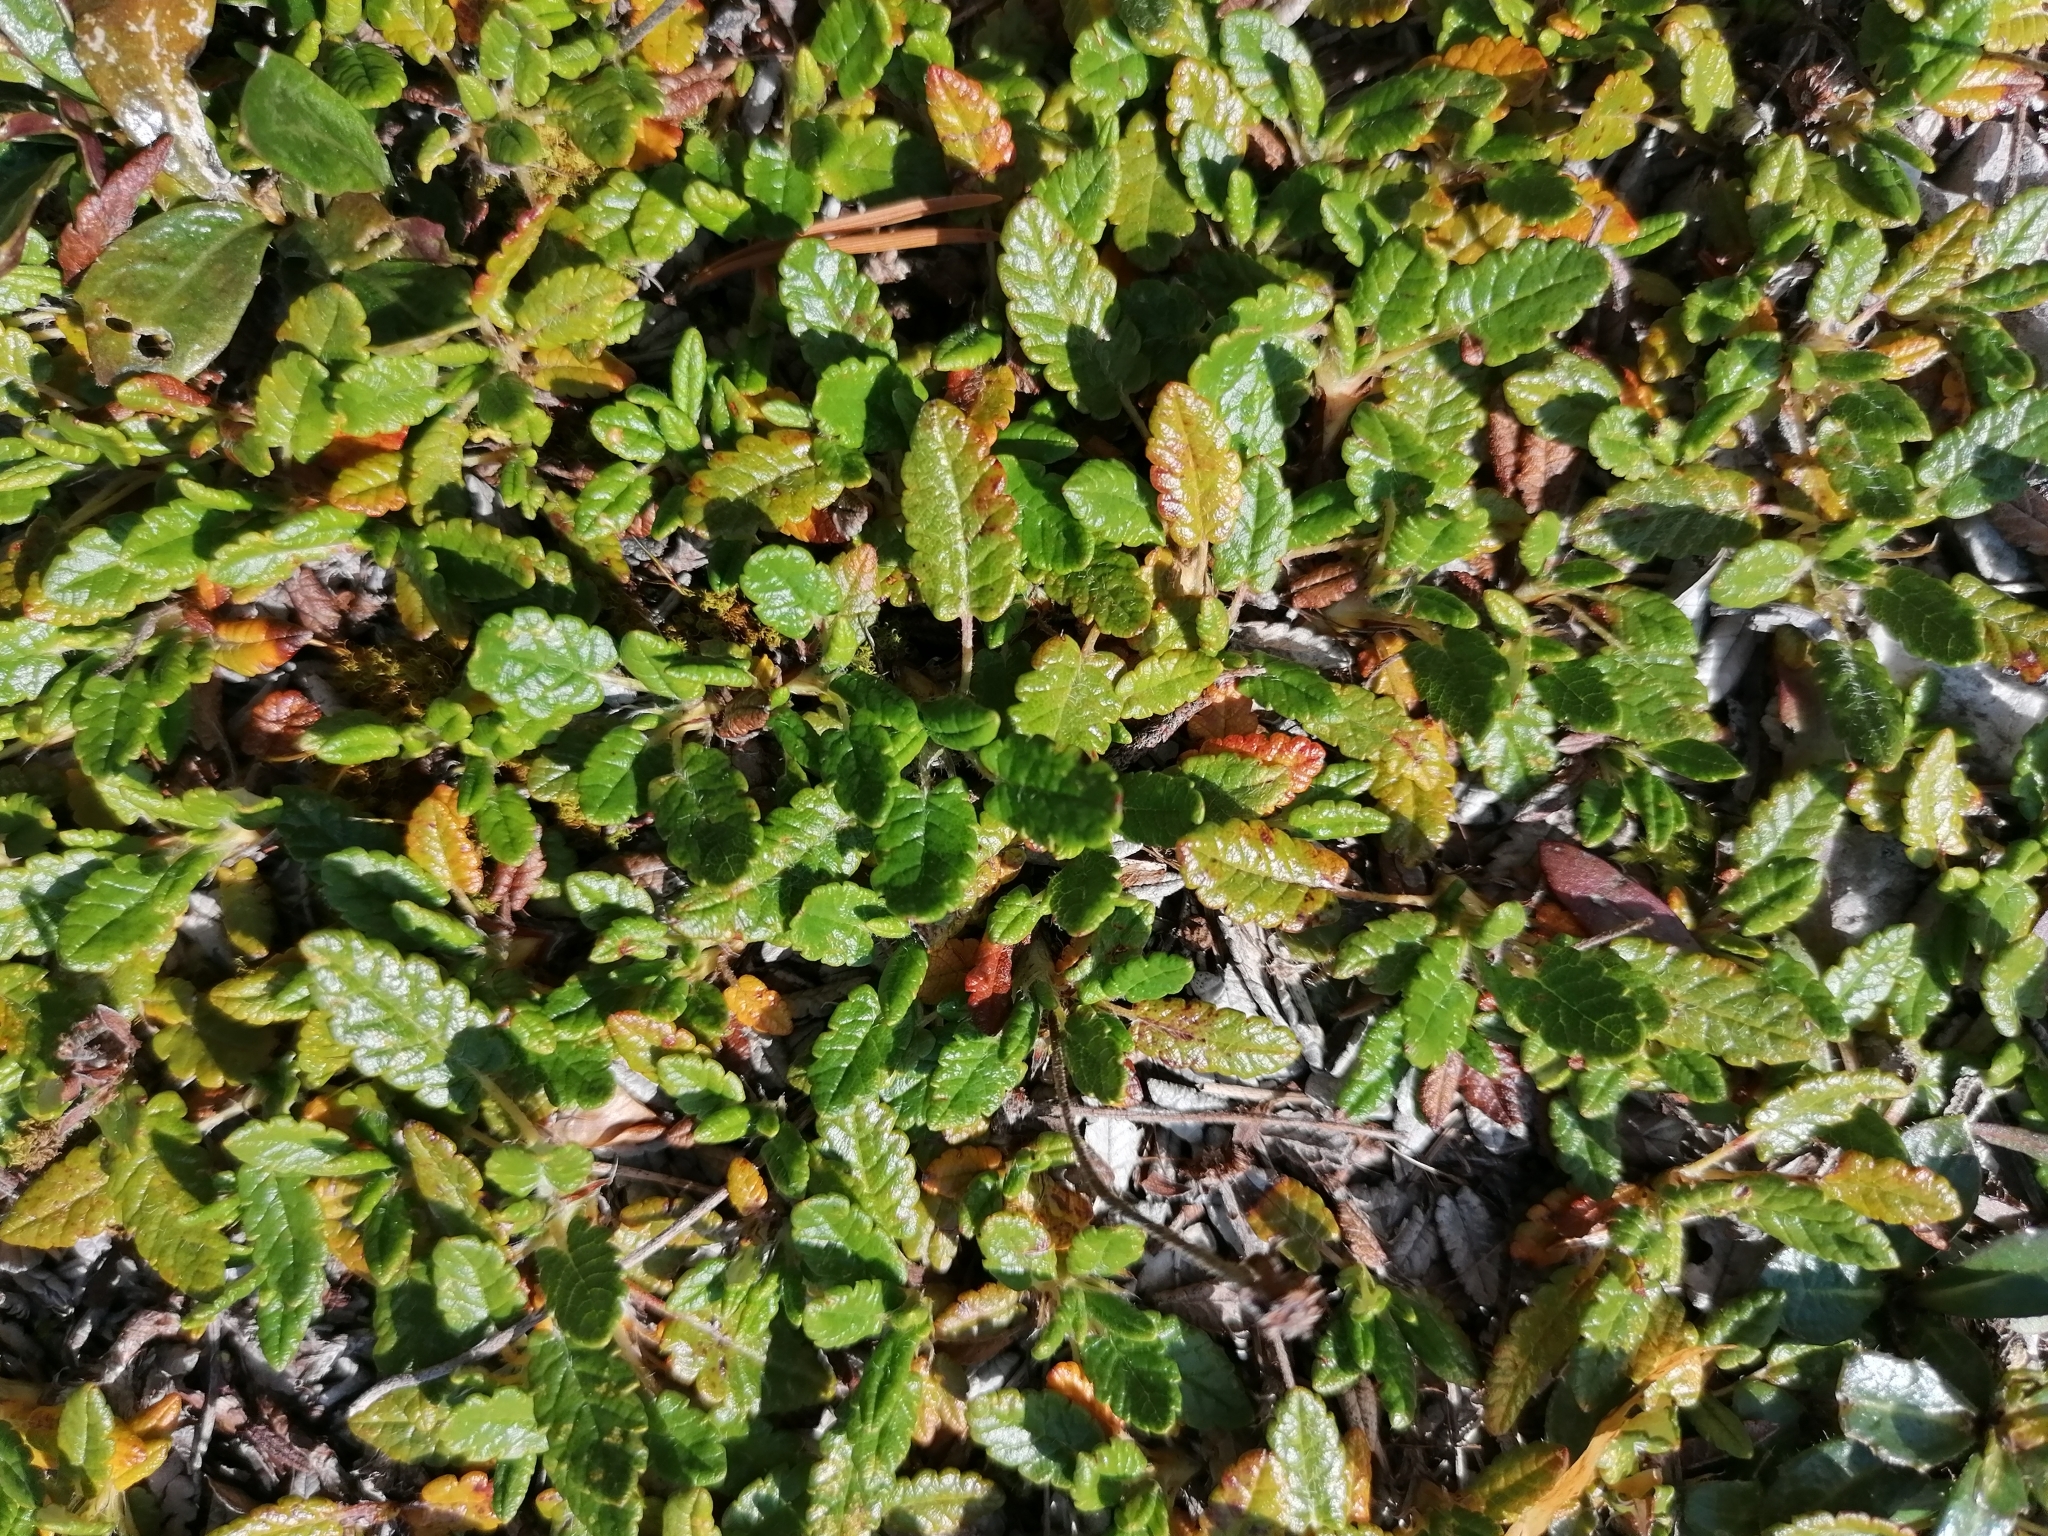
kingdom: Plantae
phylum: Tracheophyta
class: Magnoliopsida
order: Rosales
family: Rosaceae
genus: Dryas
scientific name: Dryas octopetala
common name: Eight-petal mountain-avens
